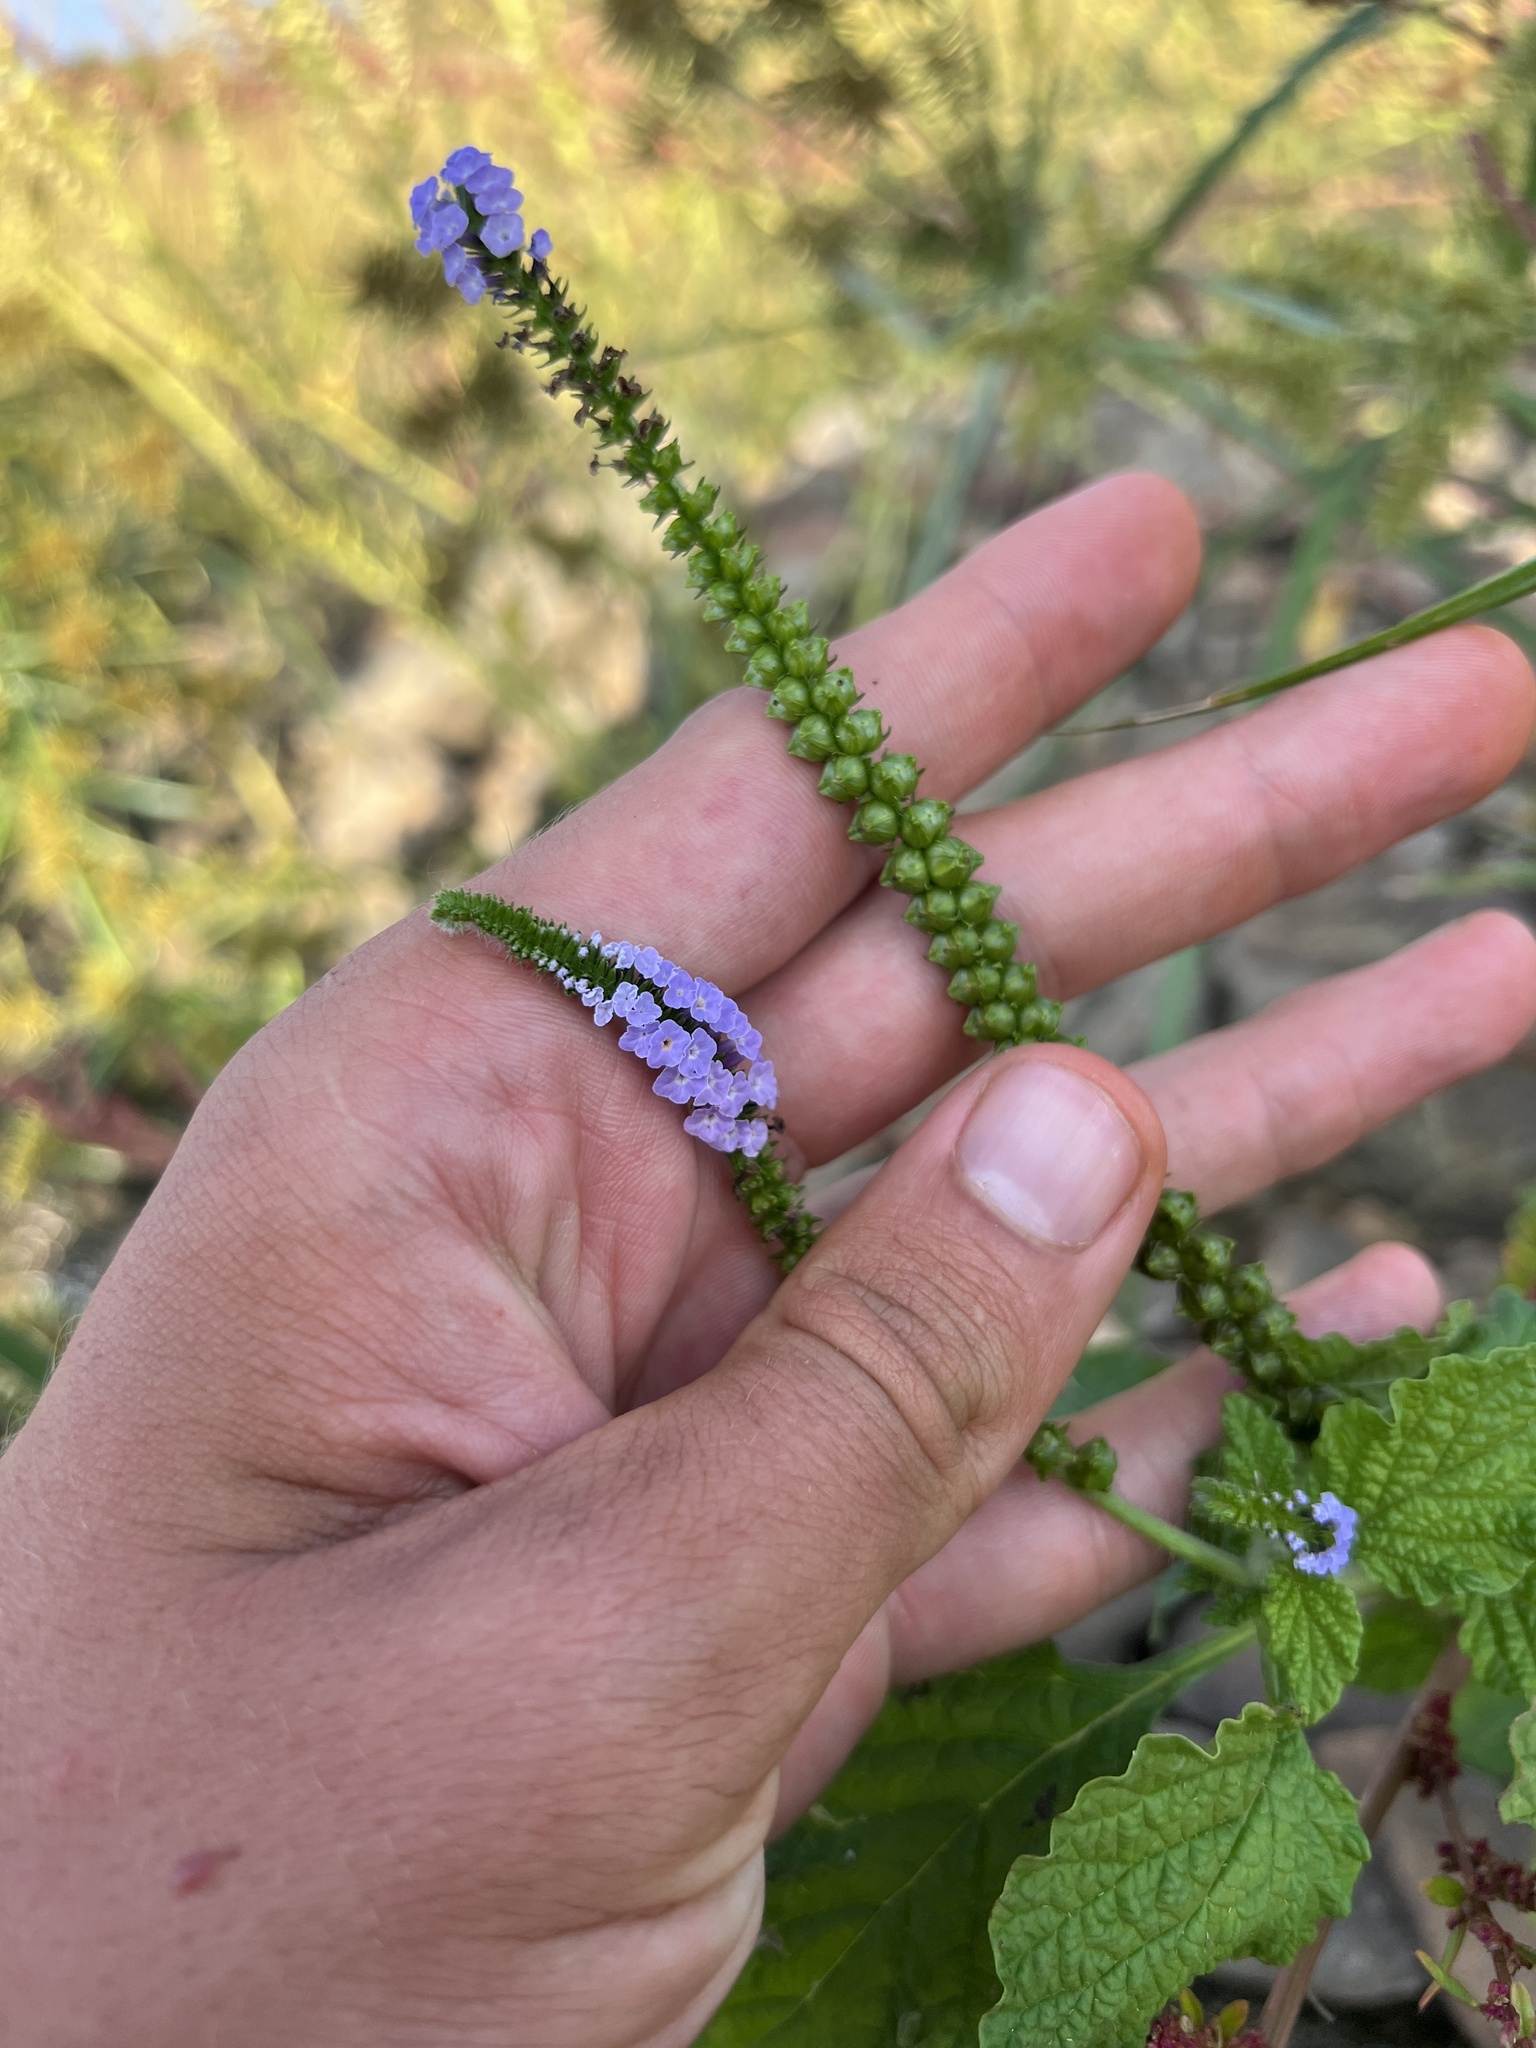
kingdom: Plantae
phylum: Tracheophyta
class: Magnoliopsida
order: Boraginales
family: Heliotropiaceae
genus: Heliotropium
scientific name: Heliotropium indicum
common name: Indian heliotrope
